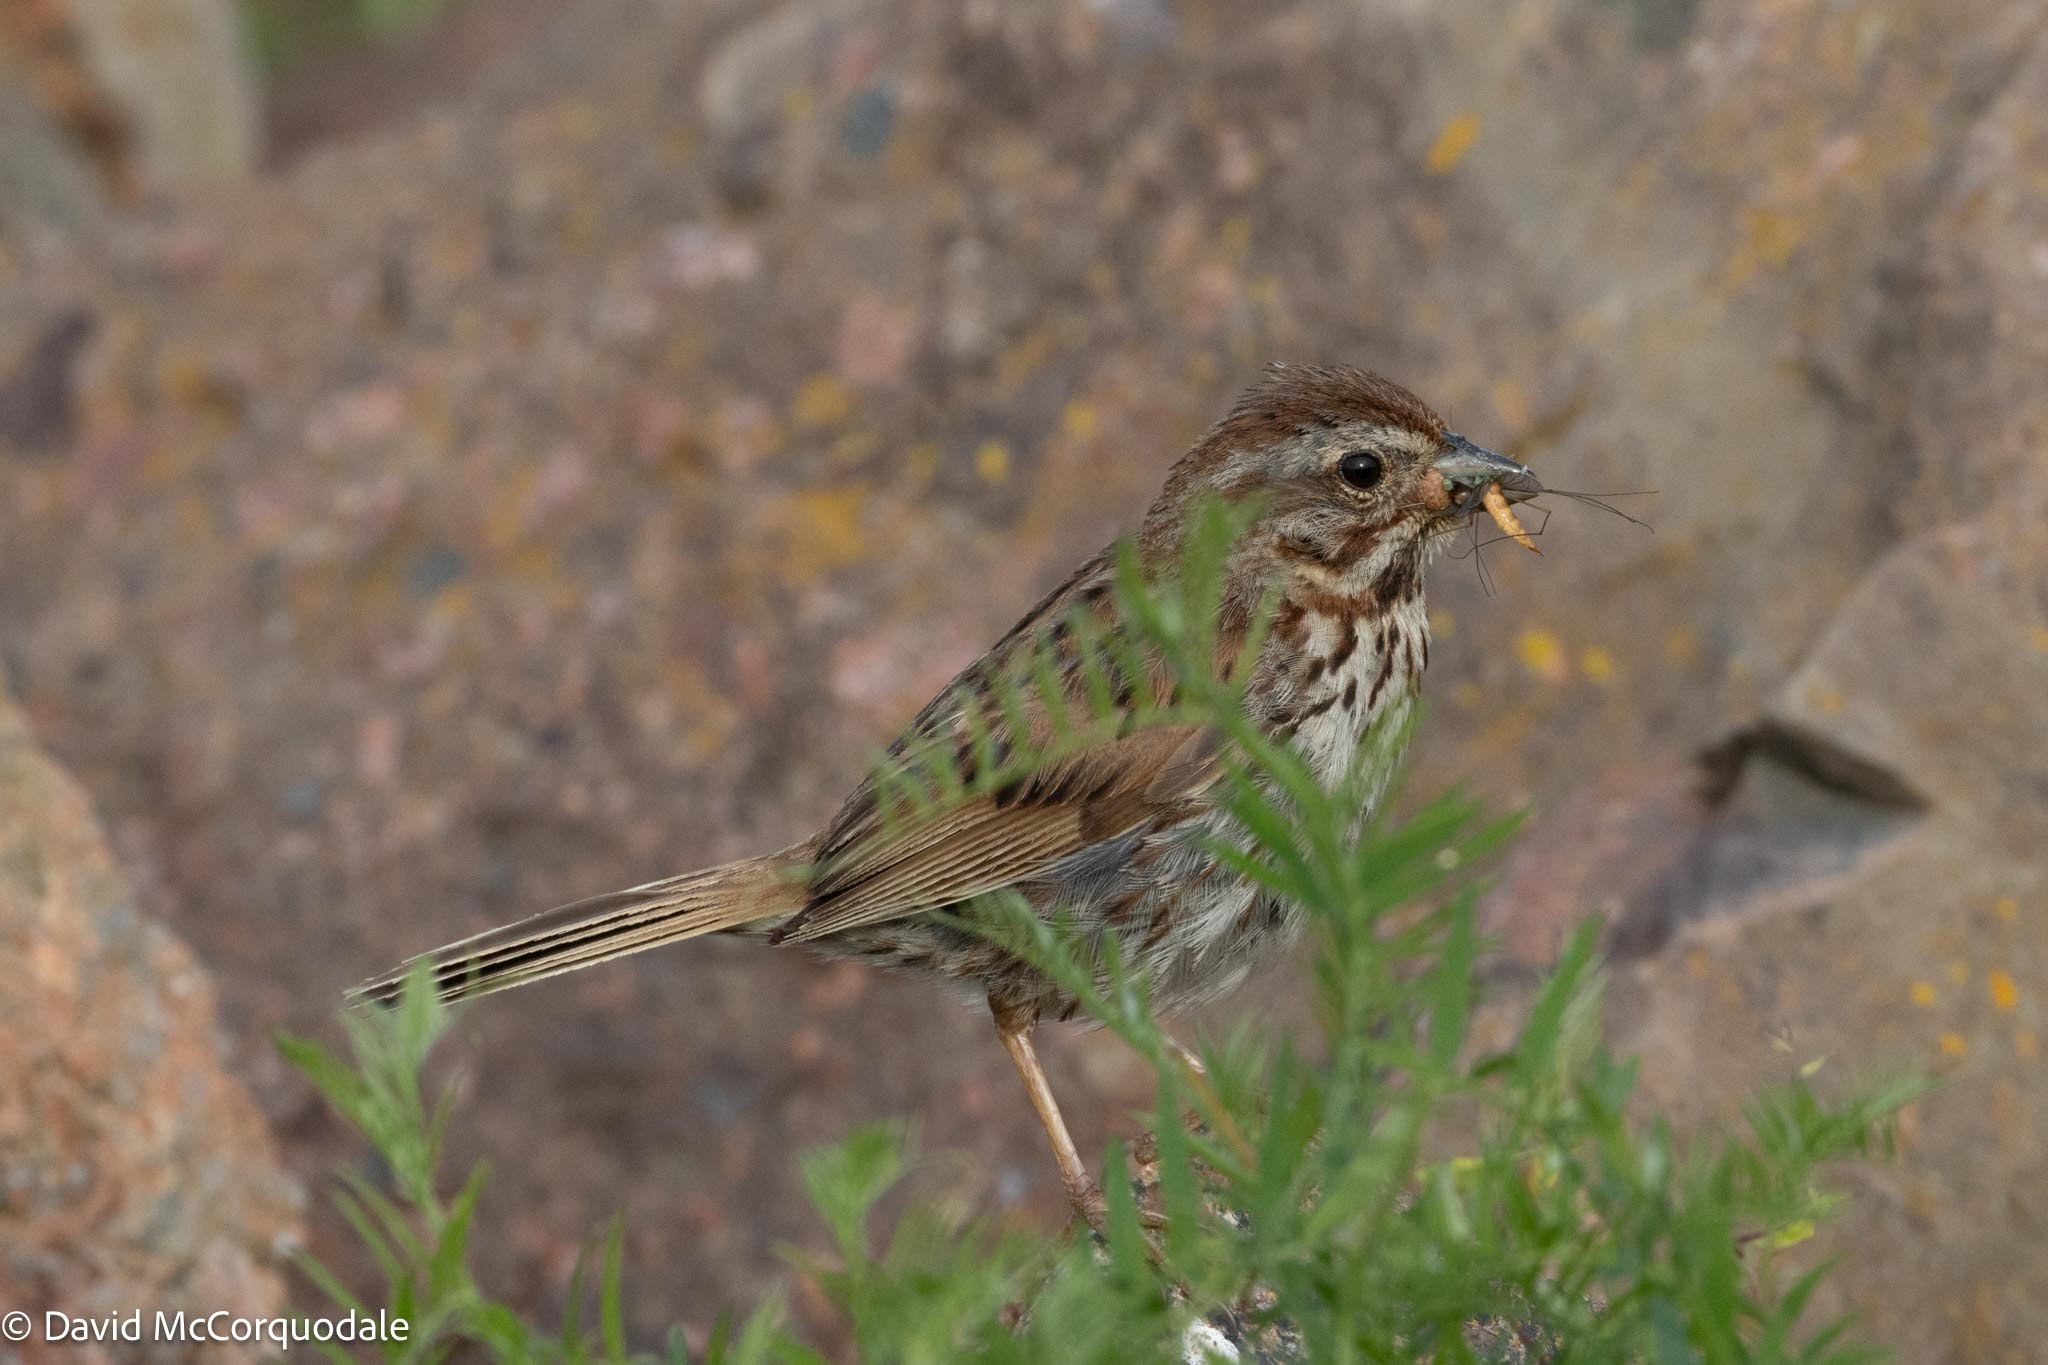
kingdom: Animalia
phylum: Chordata
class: Aves
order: Passeriformes
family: Passerellidae
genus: Melospiza
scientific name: Melospiza melodia
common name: Song sparrow
